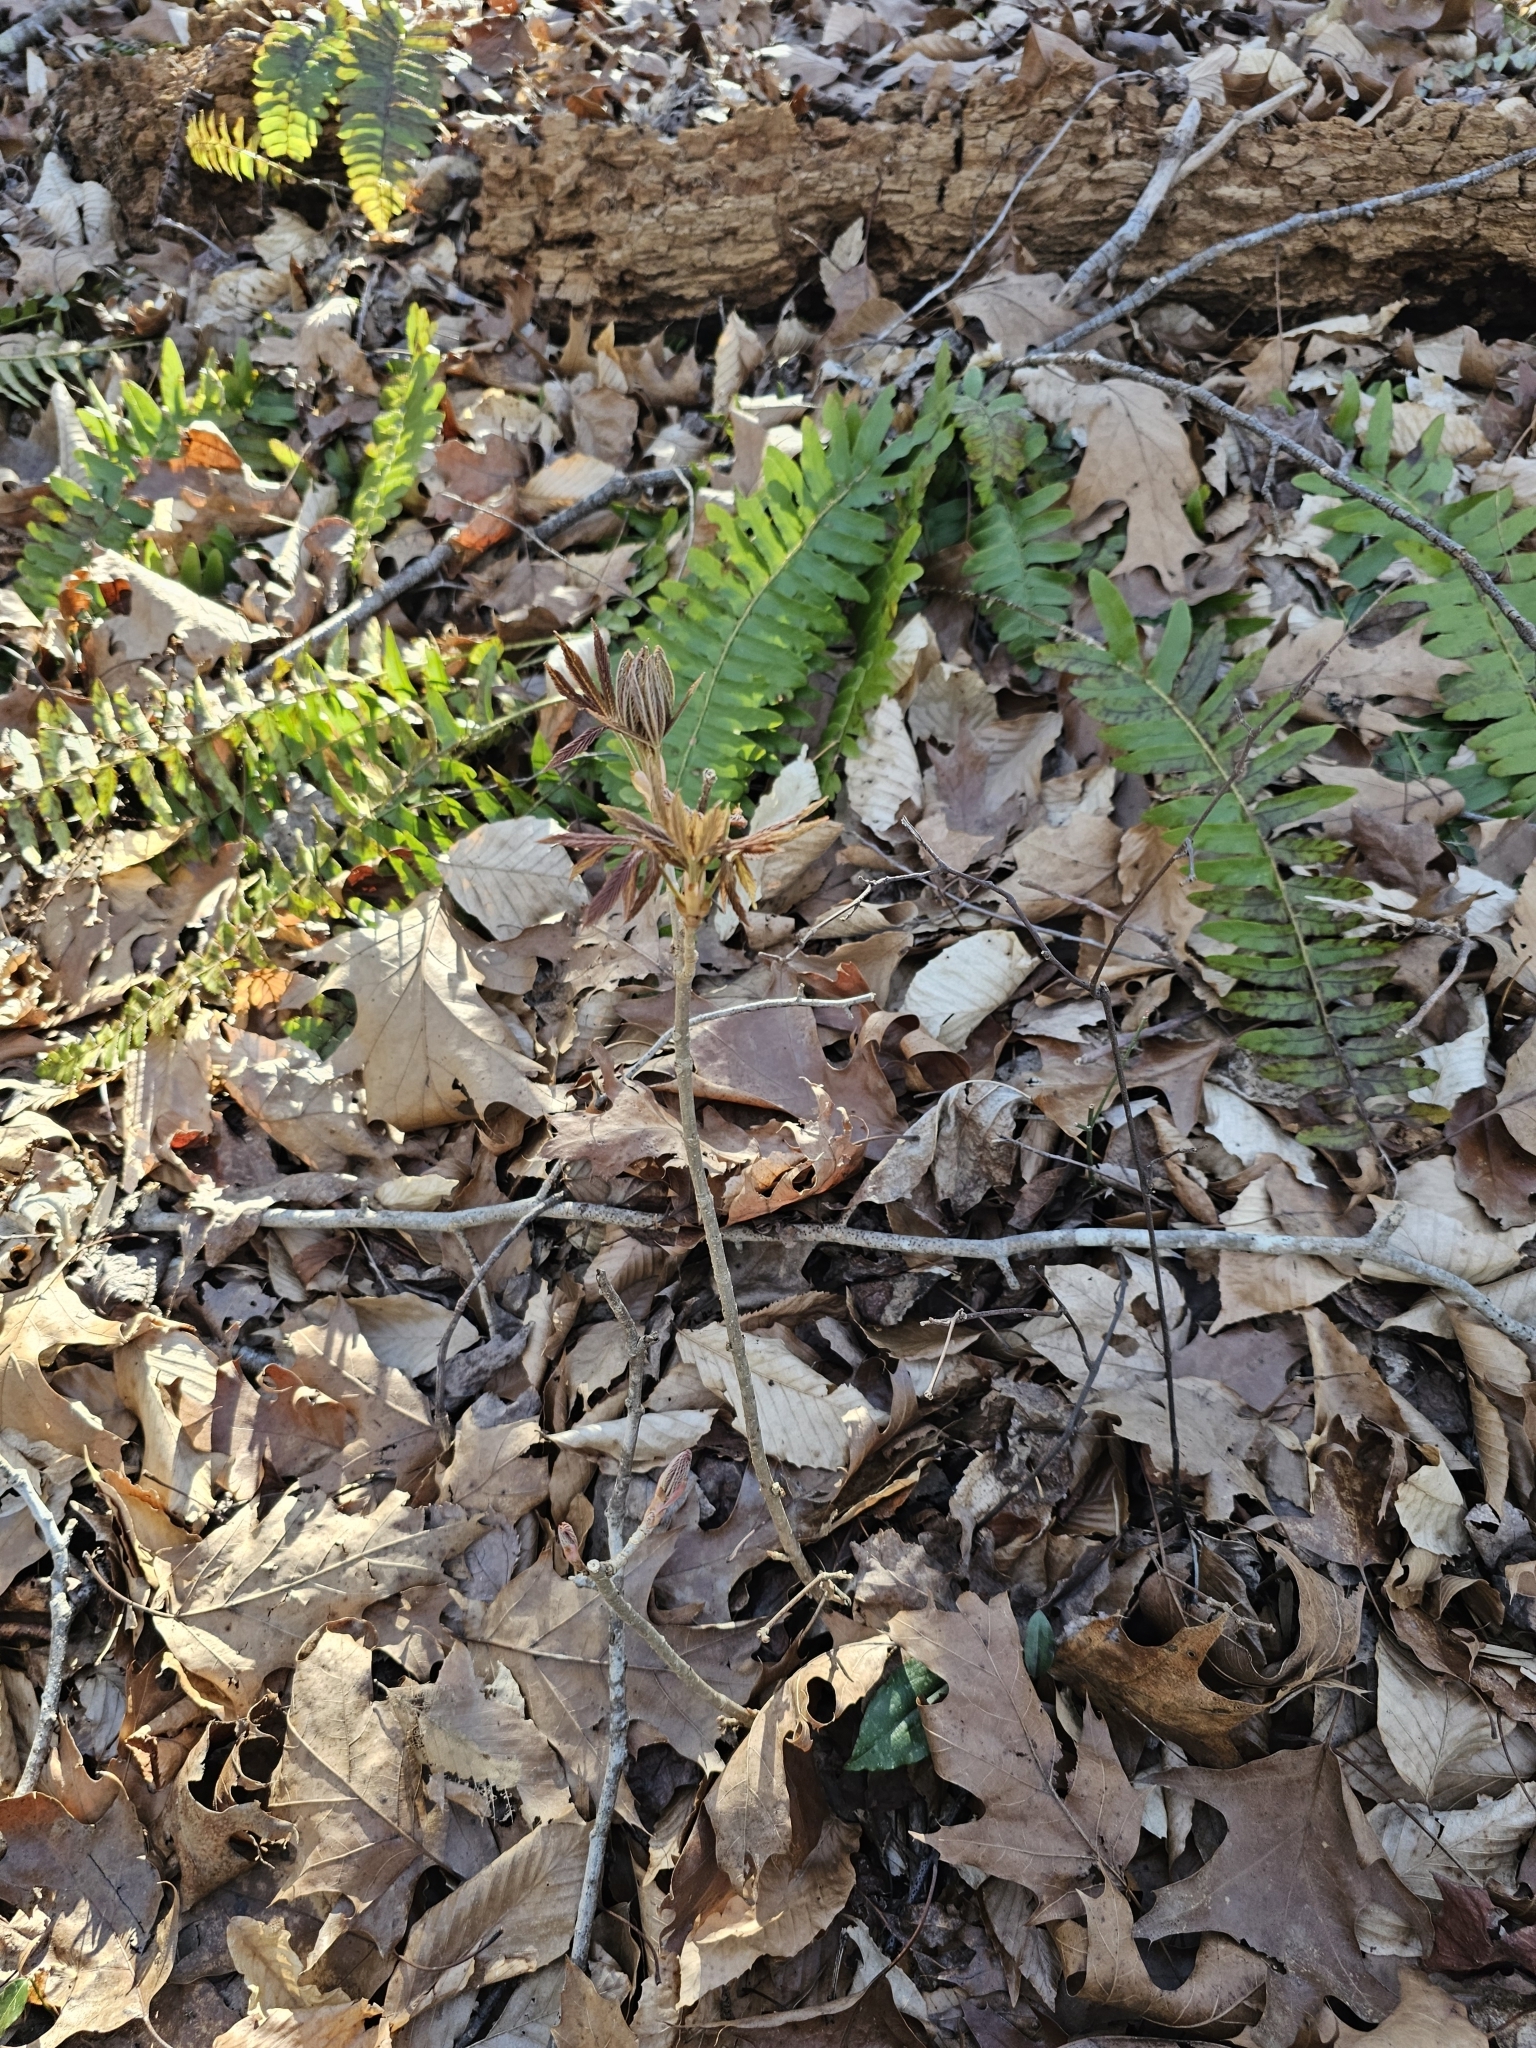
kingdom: Plantae
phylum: Tracheophyta
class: Magnoliopsida
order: Sapindales
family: Sapindaceae
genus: Aesculus
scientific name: Aesculus sylvatica
